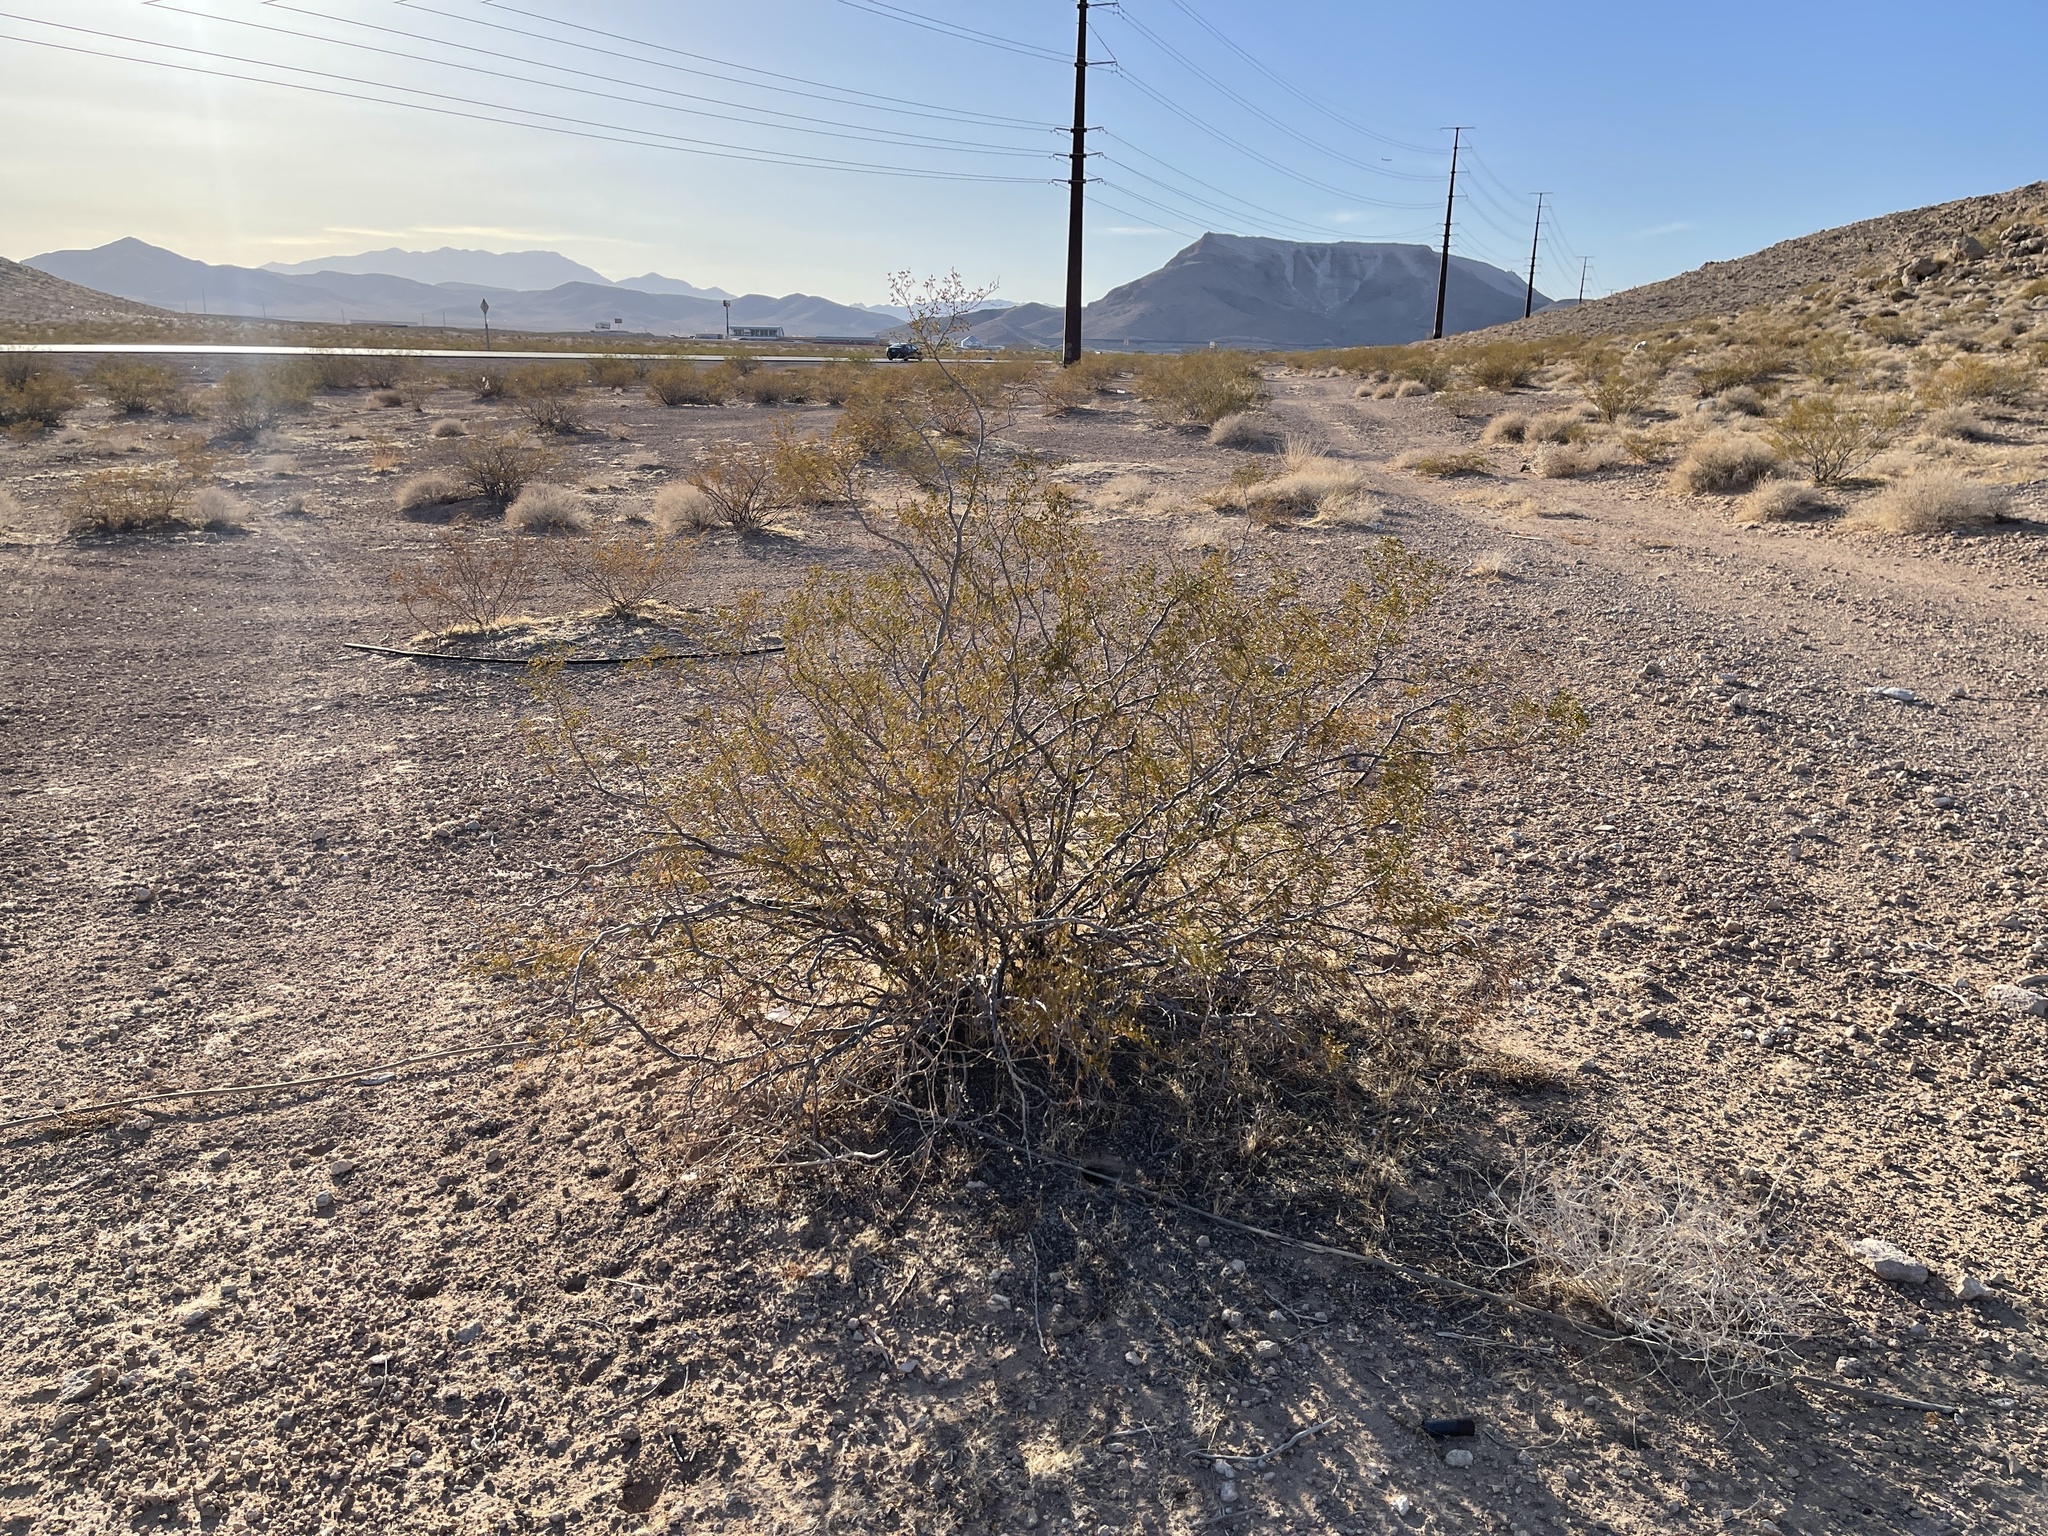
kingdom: Plantae
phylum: Tracheophyta
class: Magnoliopsida
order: Zygophyllales
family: Zygophyllaceae
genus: Larrea
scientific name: Larrea tridentata
